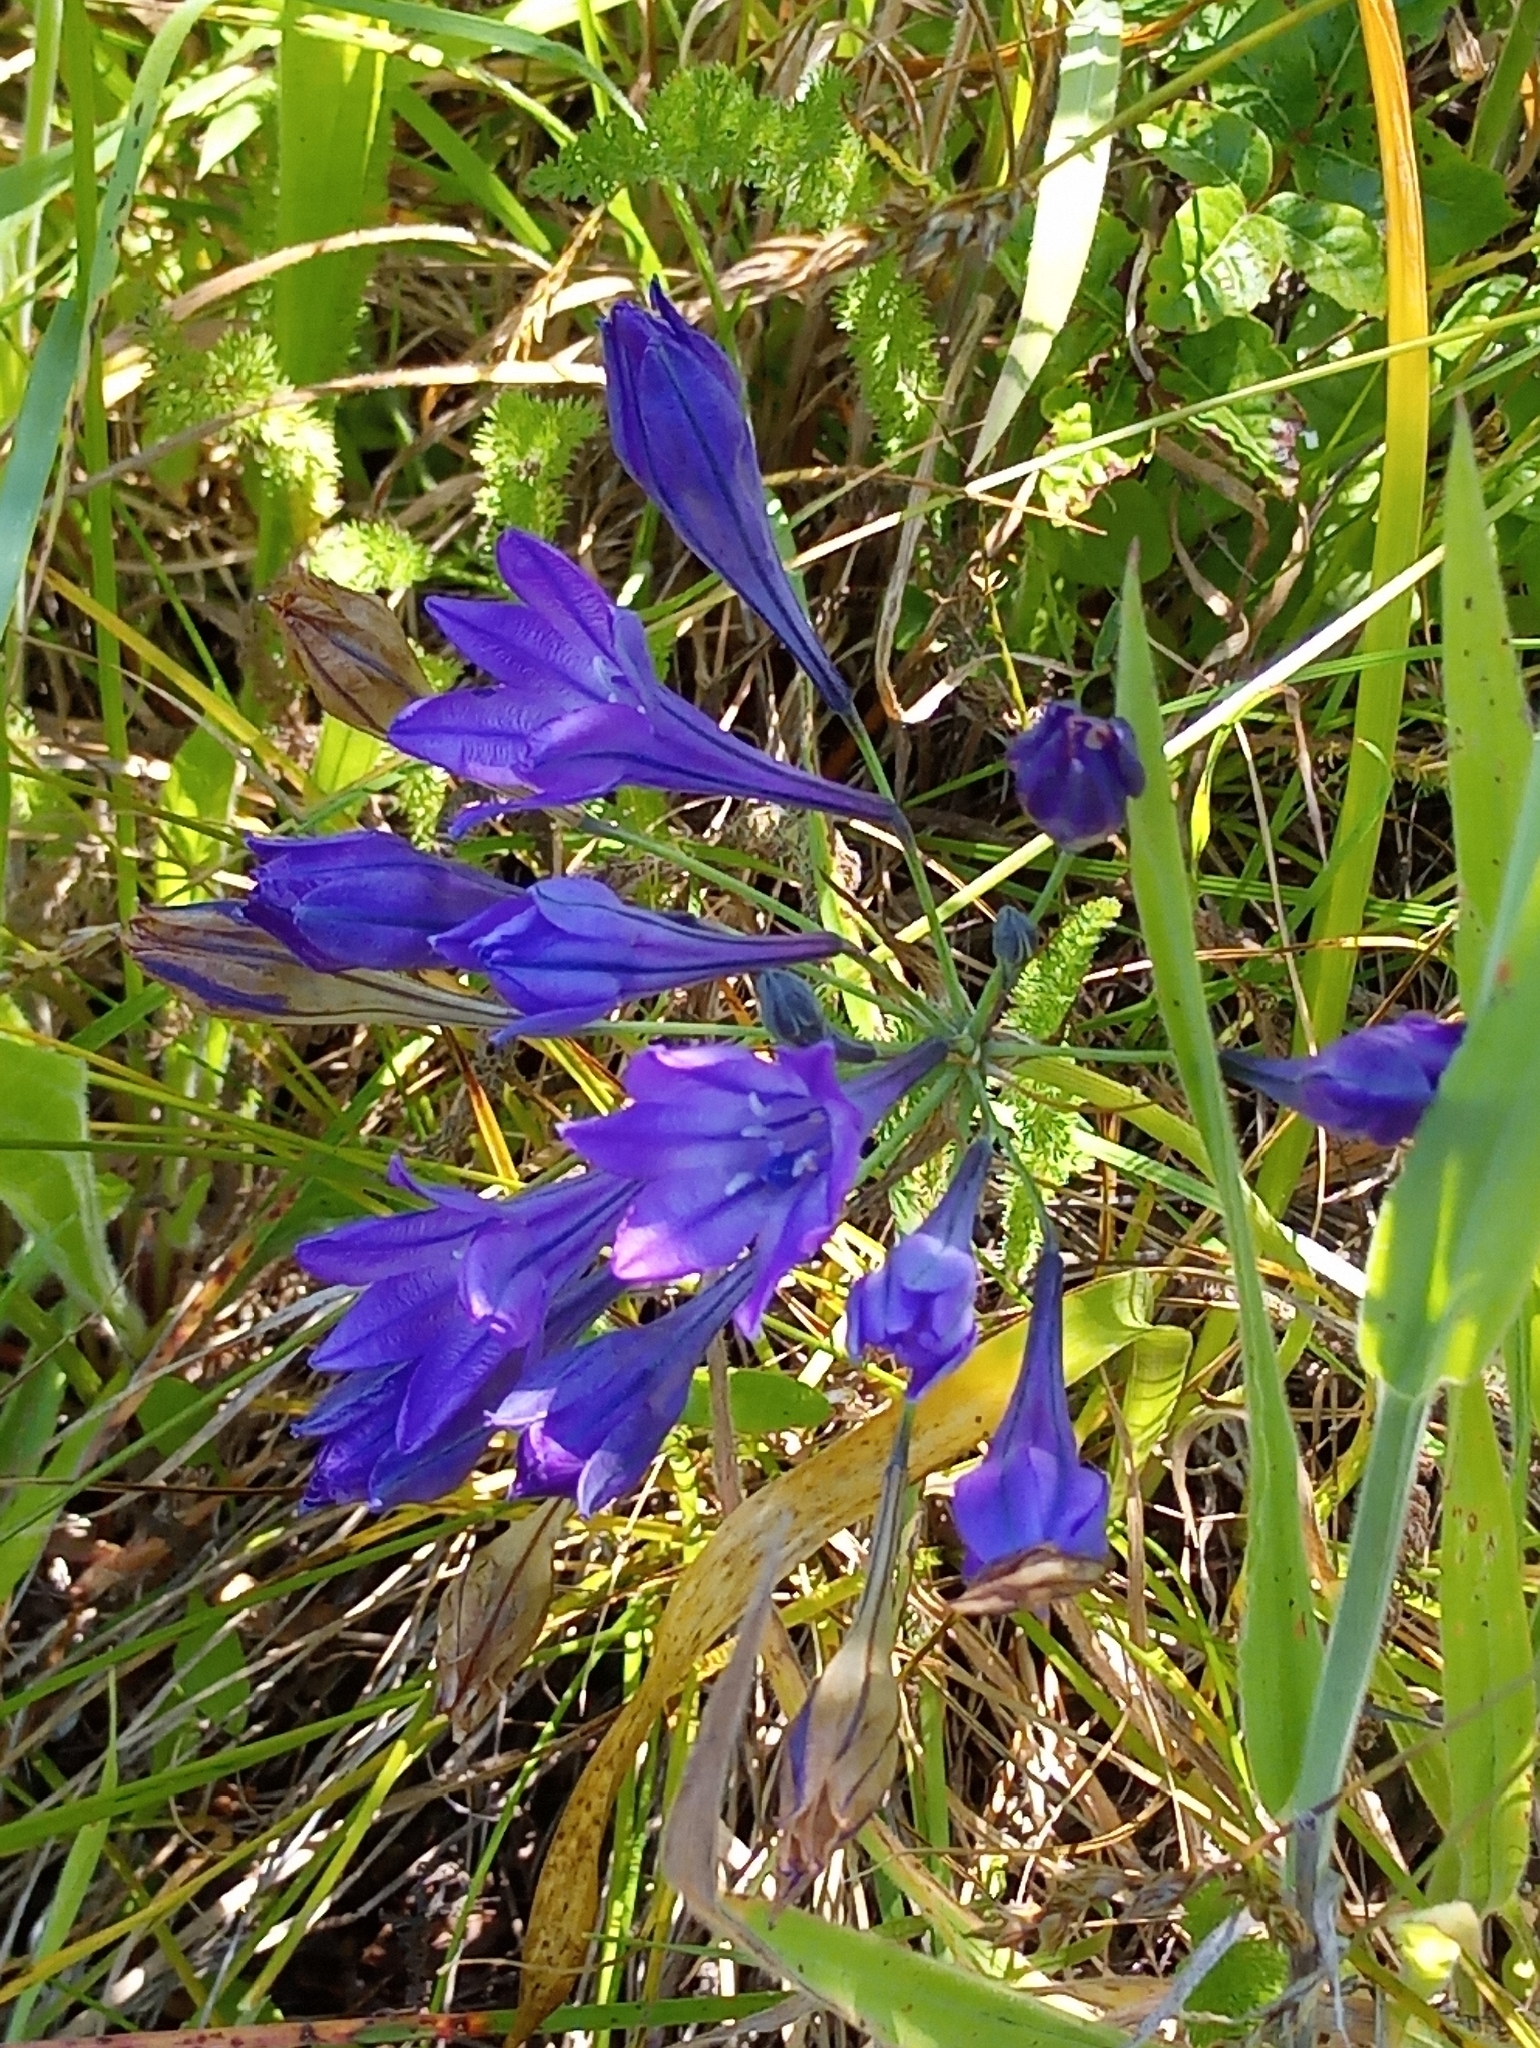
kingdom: Plantae
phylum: Tracheophyta
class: Liliopsida
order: Asparagales
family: Asparagaceae
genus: Triteleia
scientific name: Triteleia laxa
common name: Triplet-lily
